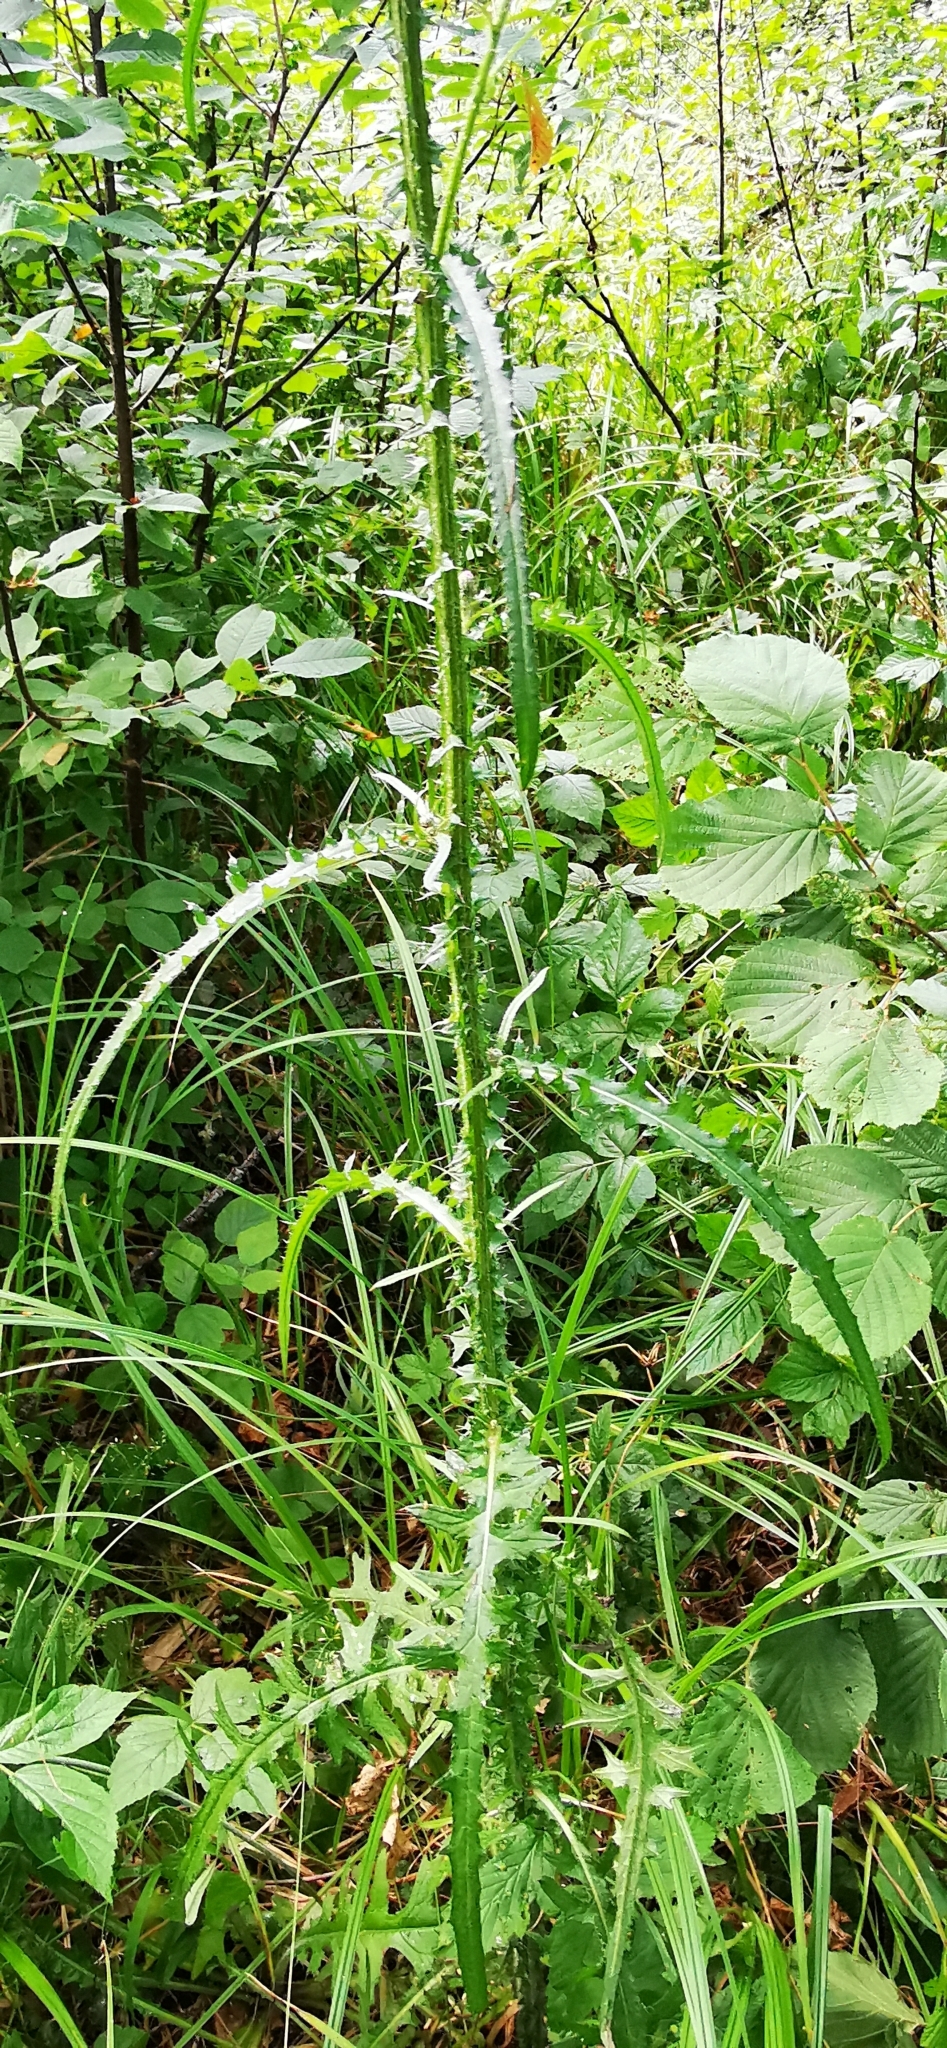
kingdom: Plantae
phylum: Tracheophyta
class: Magnoliopsida
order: Asterales
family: Asteraceae
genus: Cirsium
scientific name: Cirsium palustre
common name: Marsh thistle
